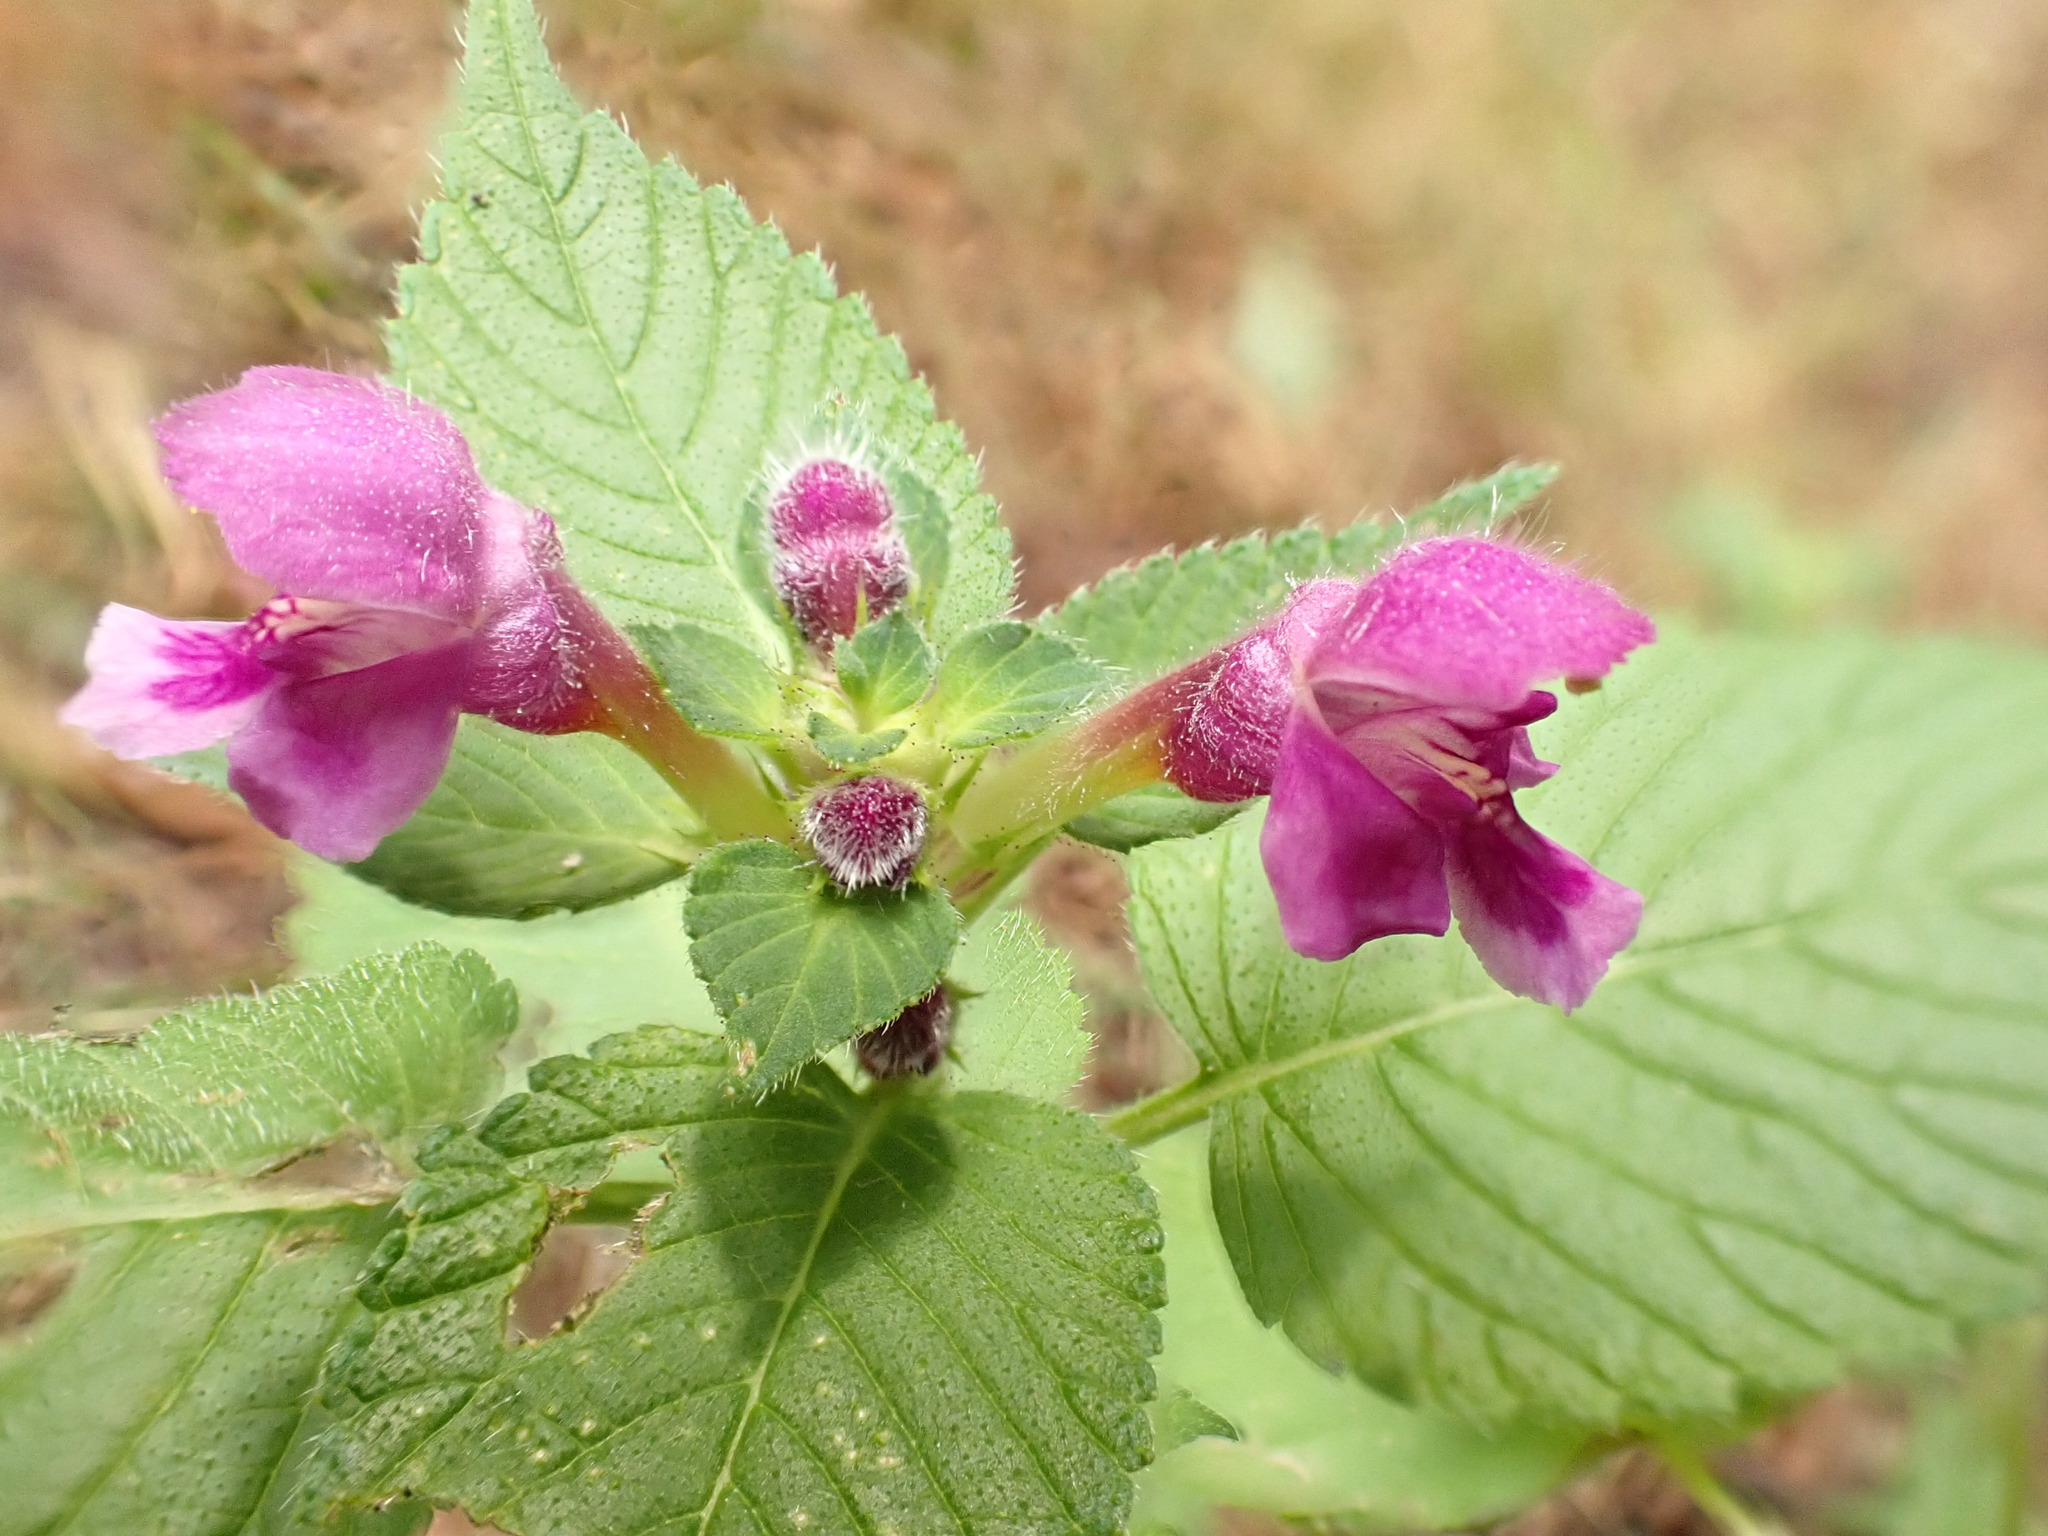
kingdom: Plantae
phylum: Tracheophyta
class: Magnoliopsida
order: Lamiales
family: Lamiaceae
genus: Galeopsis
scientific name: Galeopsis pubescens
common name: Downy hemp-nettle
